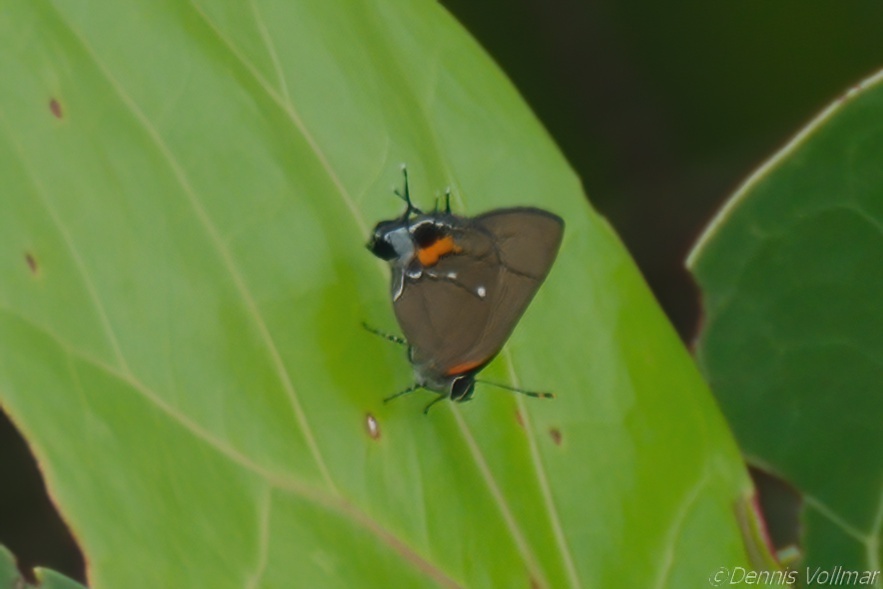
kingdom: Animalia
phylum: Arthropoda
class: Insecta
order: Lepidoptera
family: Lycaenidae
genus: Thecla
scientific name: Thecla angelia
